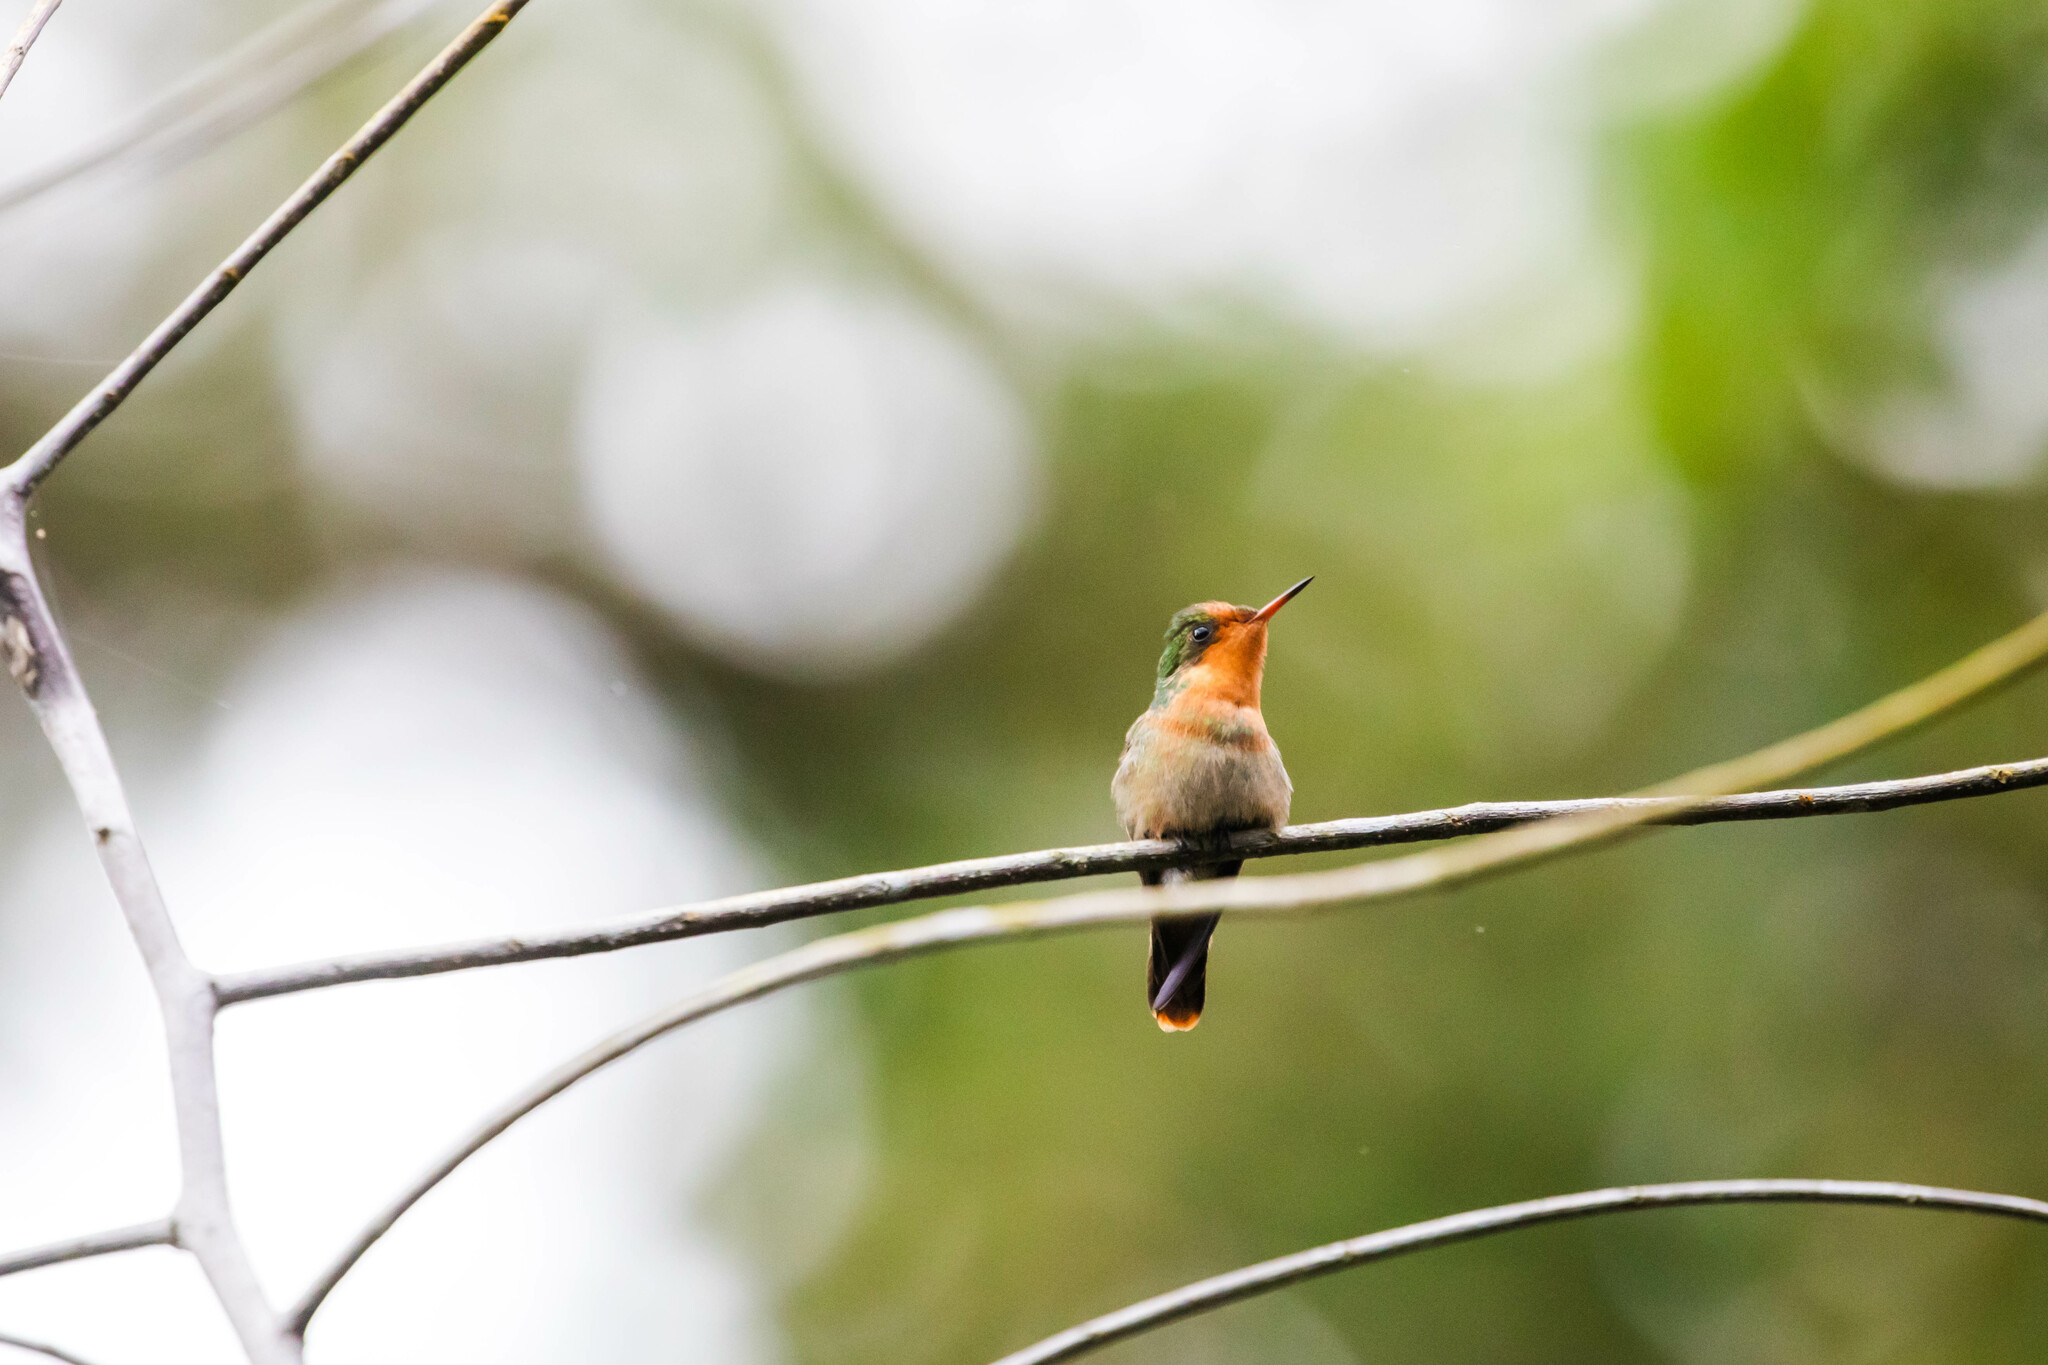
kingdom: Animalia
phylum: Chordata
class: Aves
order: Apodiformes
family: Trochilidae
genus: Lophornis
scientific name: Lophornis ornatus
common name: Tufted coquette
